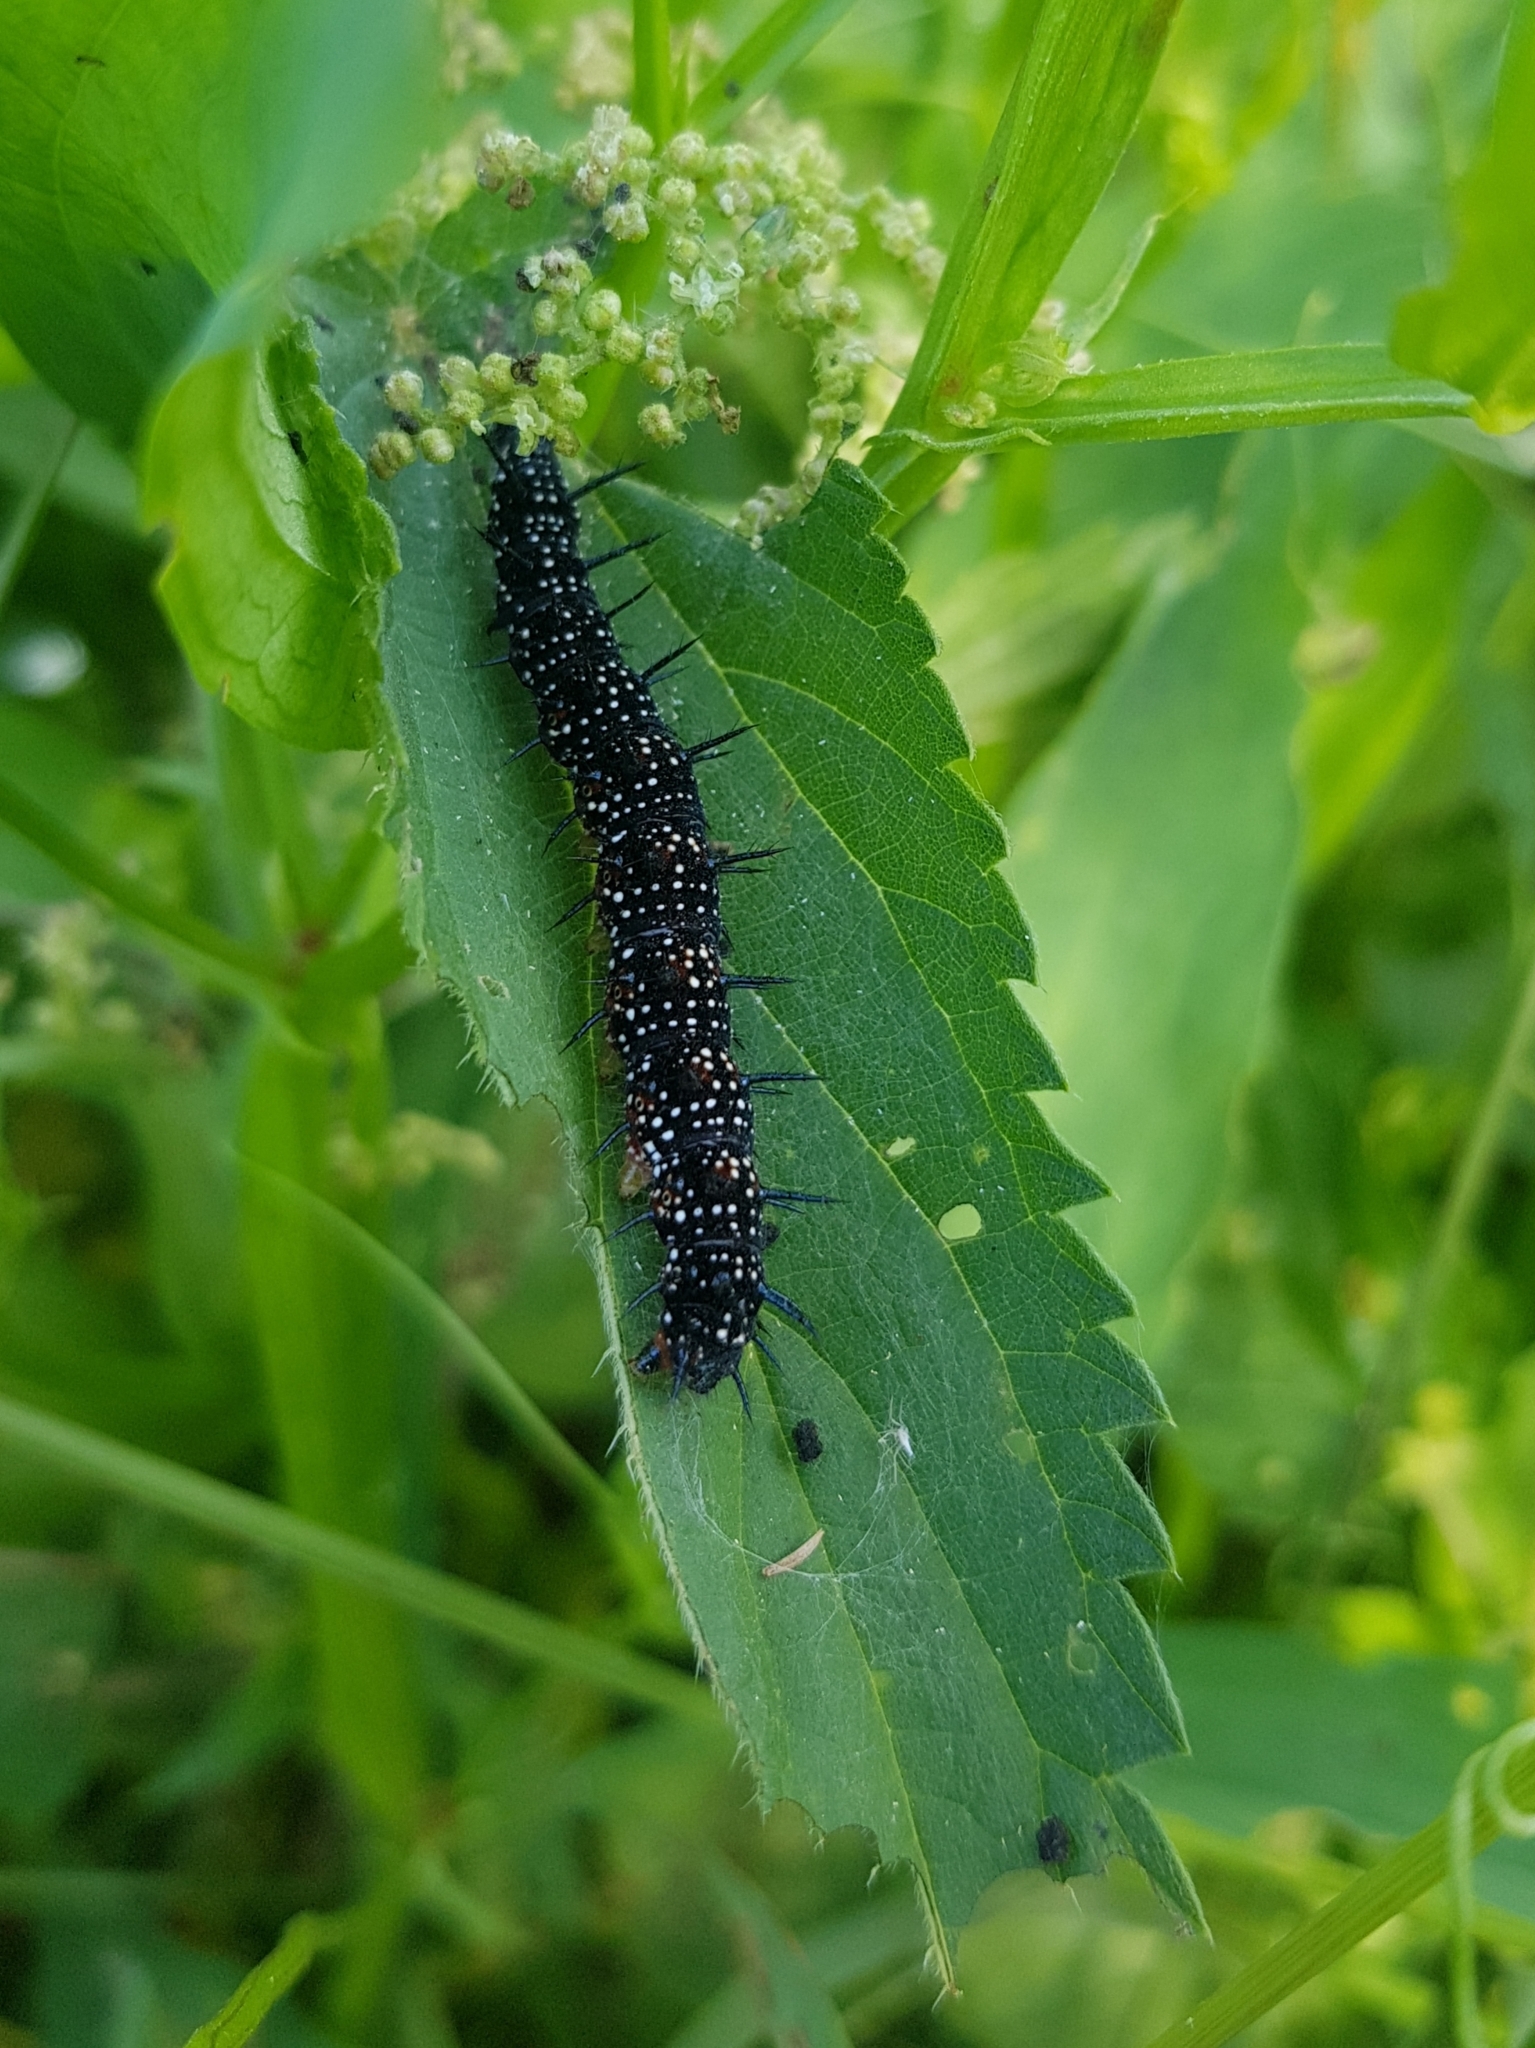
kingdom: Animalia
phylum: Arthropoda
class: Insecta
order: Lepidoptera
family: Nymphalidae
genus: Aglais
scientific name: Aglais io
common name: Peacock
